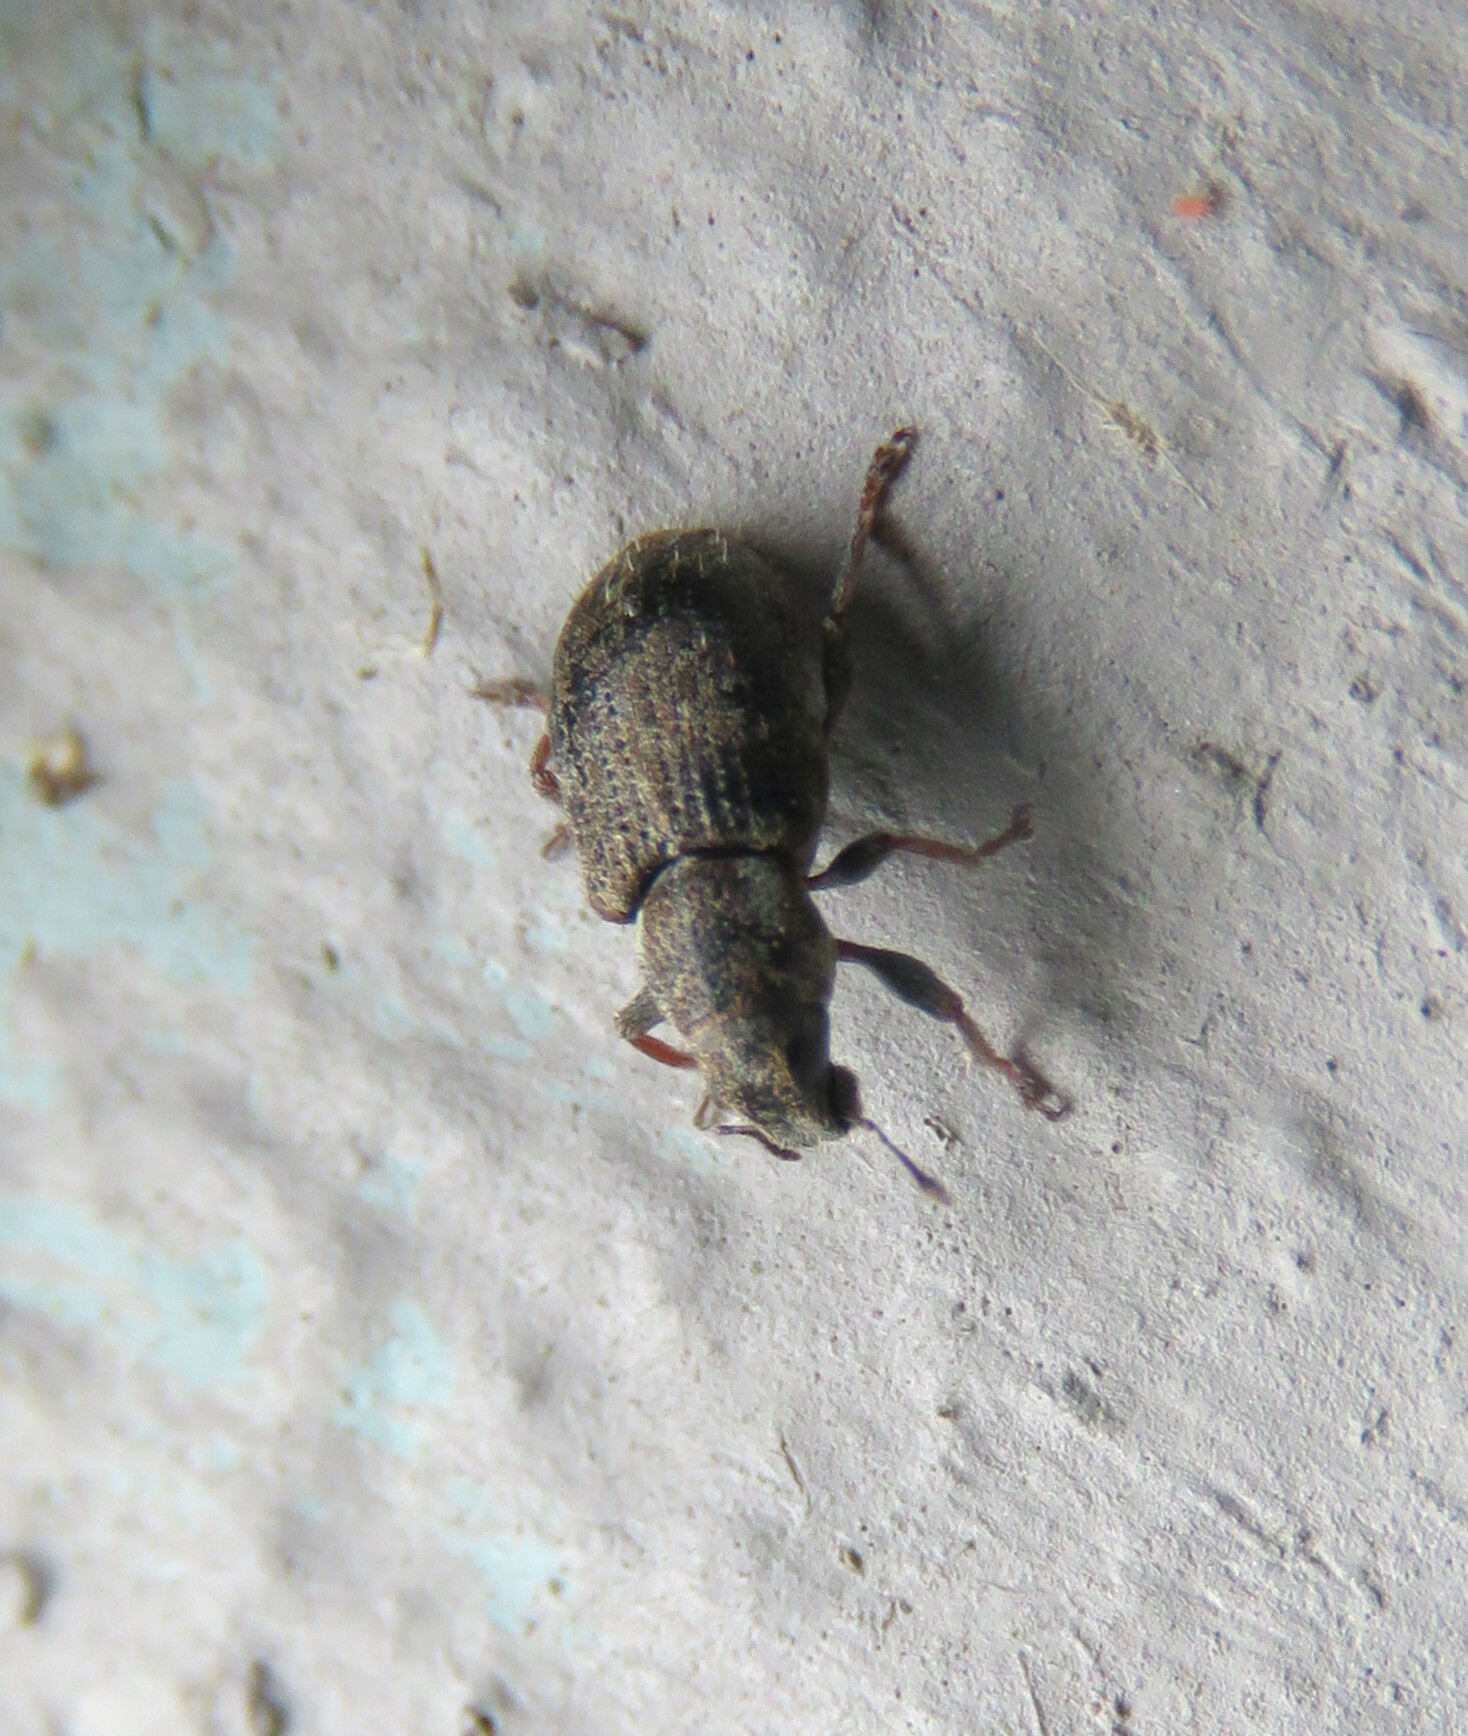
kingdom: Animalia
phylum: Arthropoda
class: Insecta
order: Coleoptera
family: Curculionidae
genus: Sitona
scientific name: Sitona hispidulus
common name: Clover weevil
